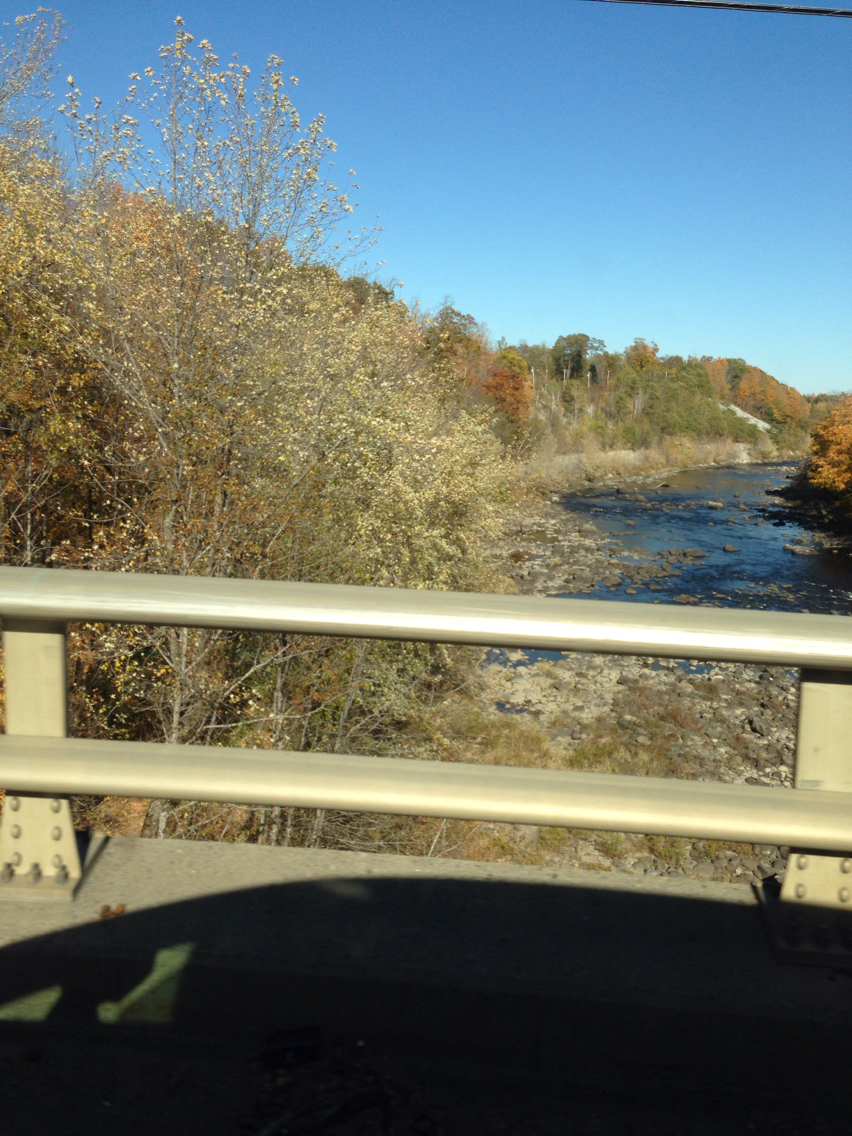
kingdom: Plantae
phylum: Tracheophyta
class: Magnoliopsida
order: Sapindales
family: Sapindaceae
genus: Acer
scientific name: Acer saccharinum
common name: Silver maple
